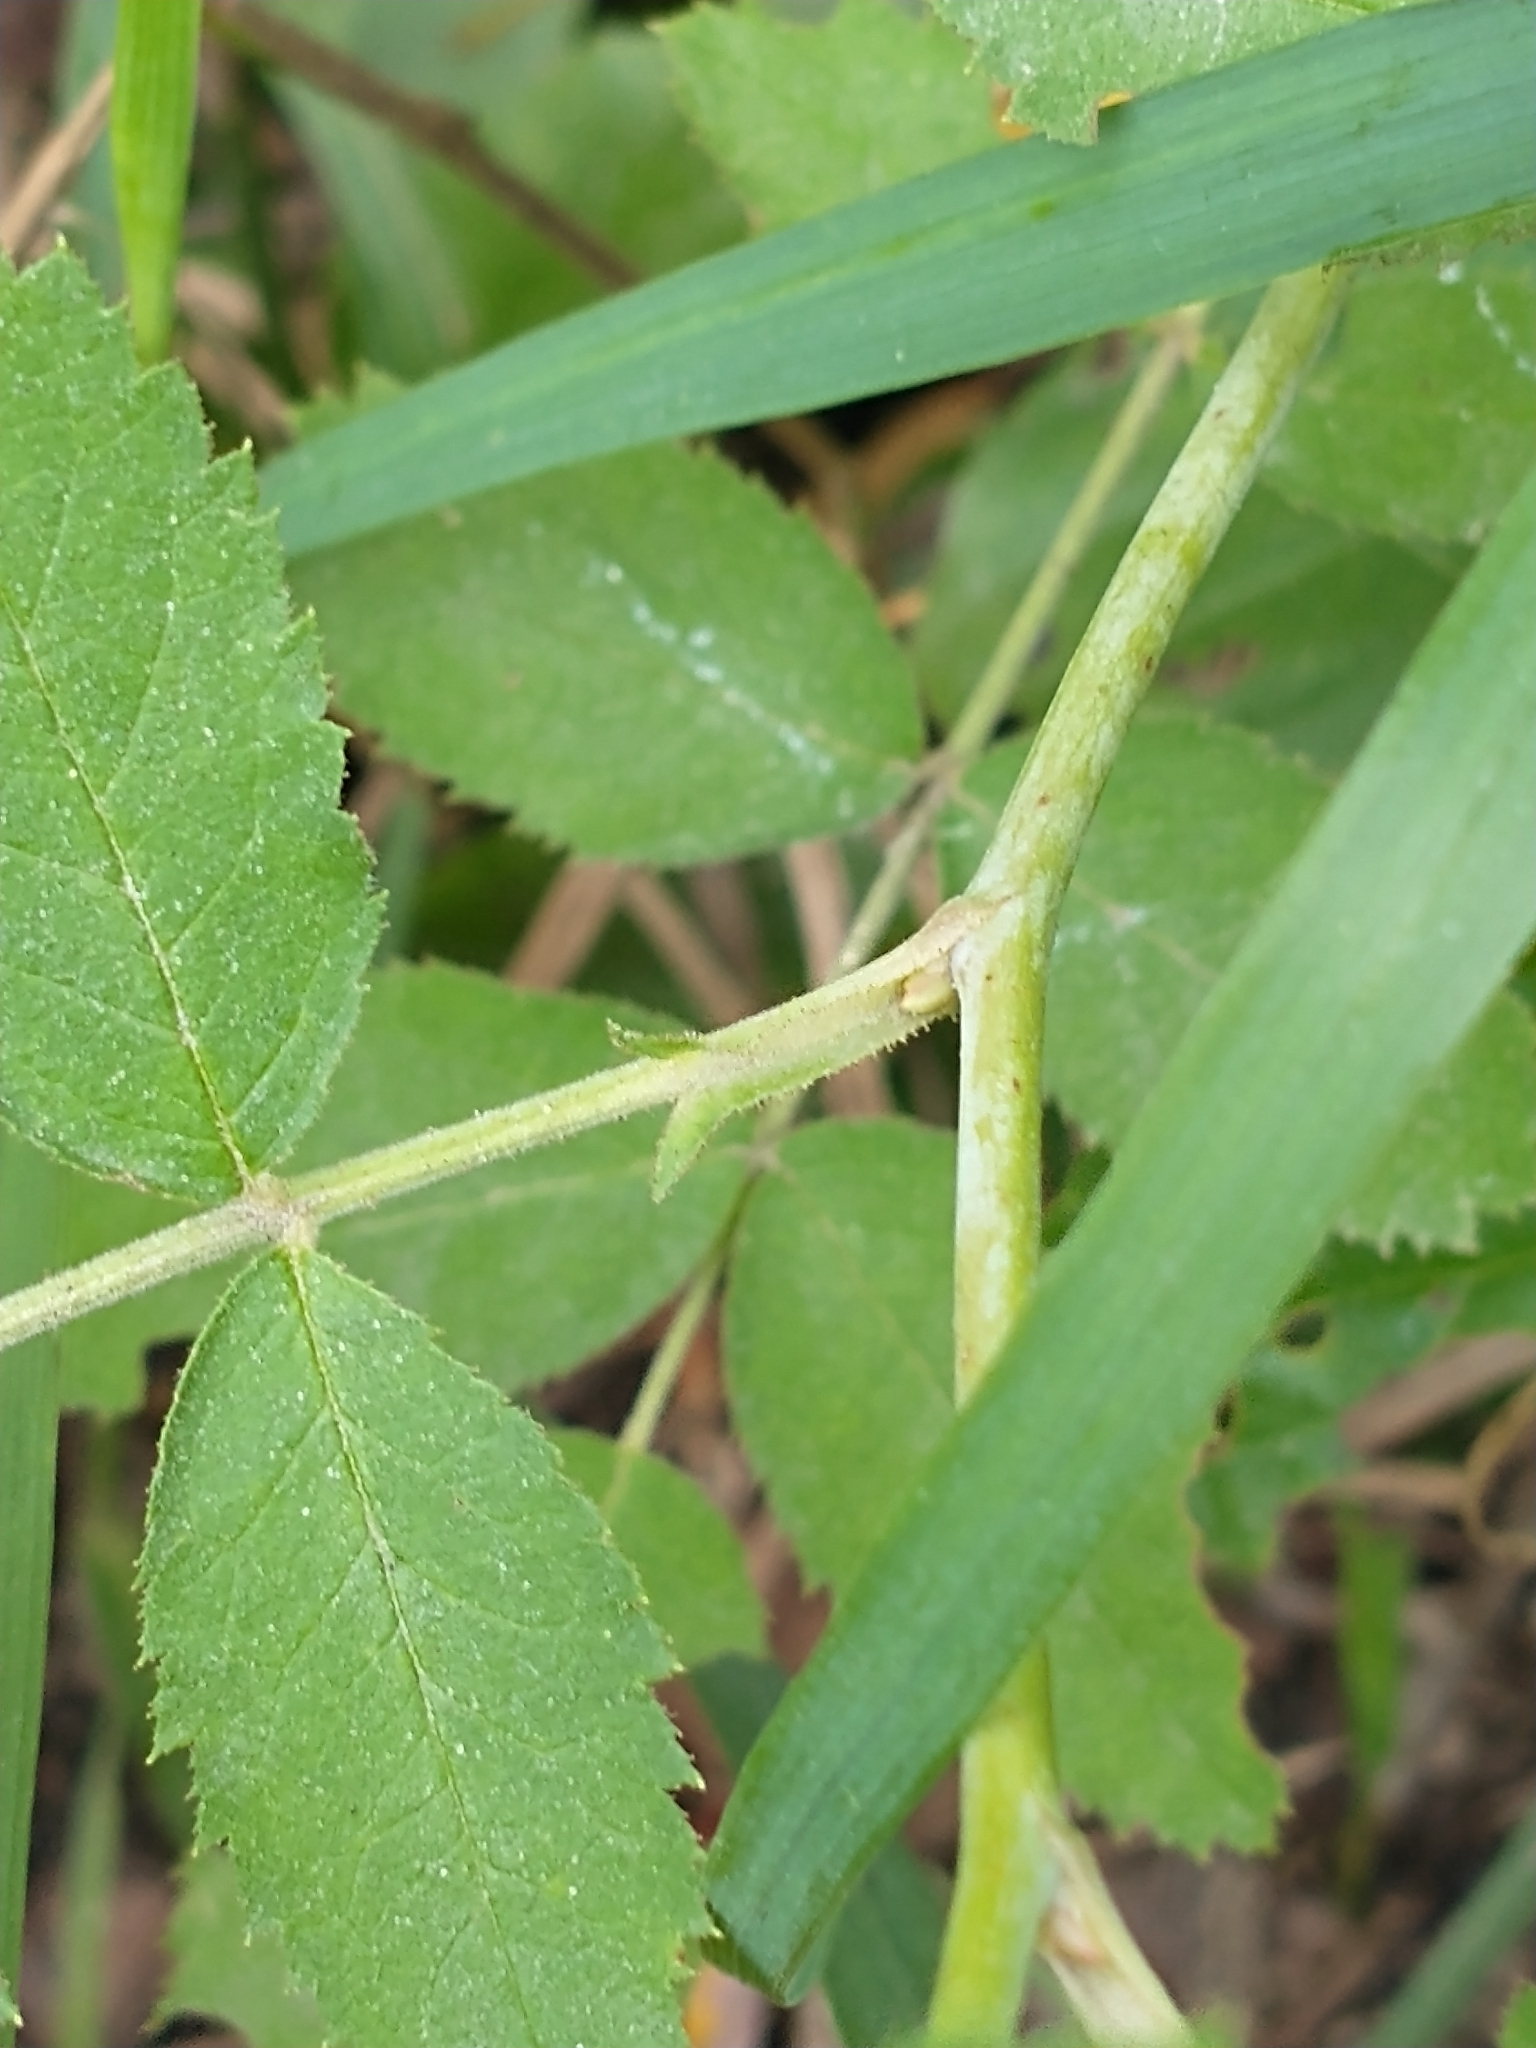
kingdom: Plantae
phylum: Tracheophyta
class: Magnoliopsida
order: Rosales
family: Rosaceae
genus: Rosa
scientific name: Rosa sherardii
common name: Sherard's downy rose
